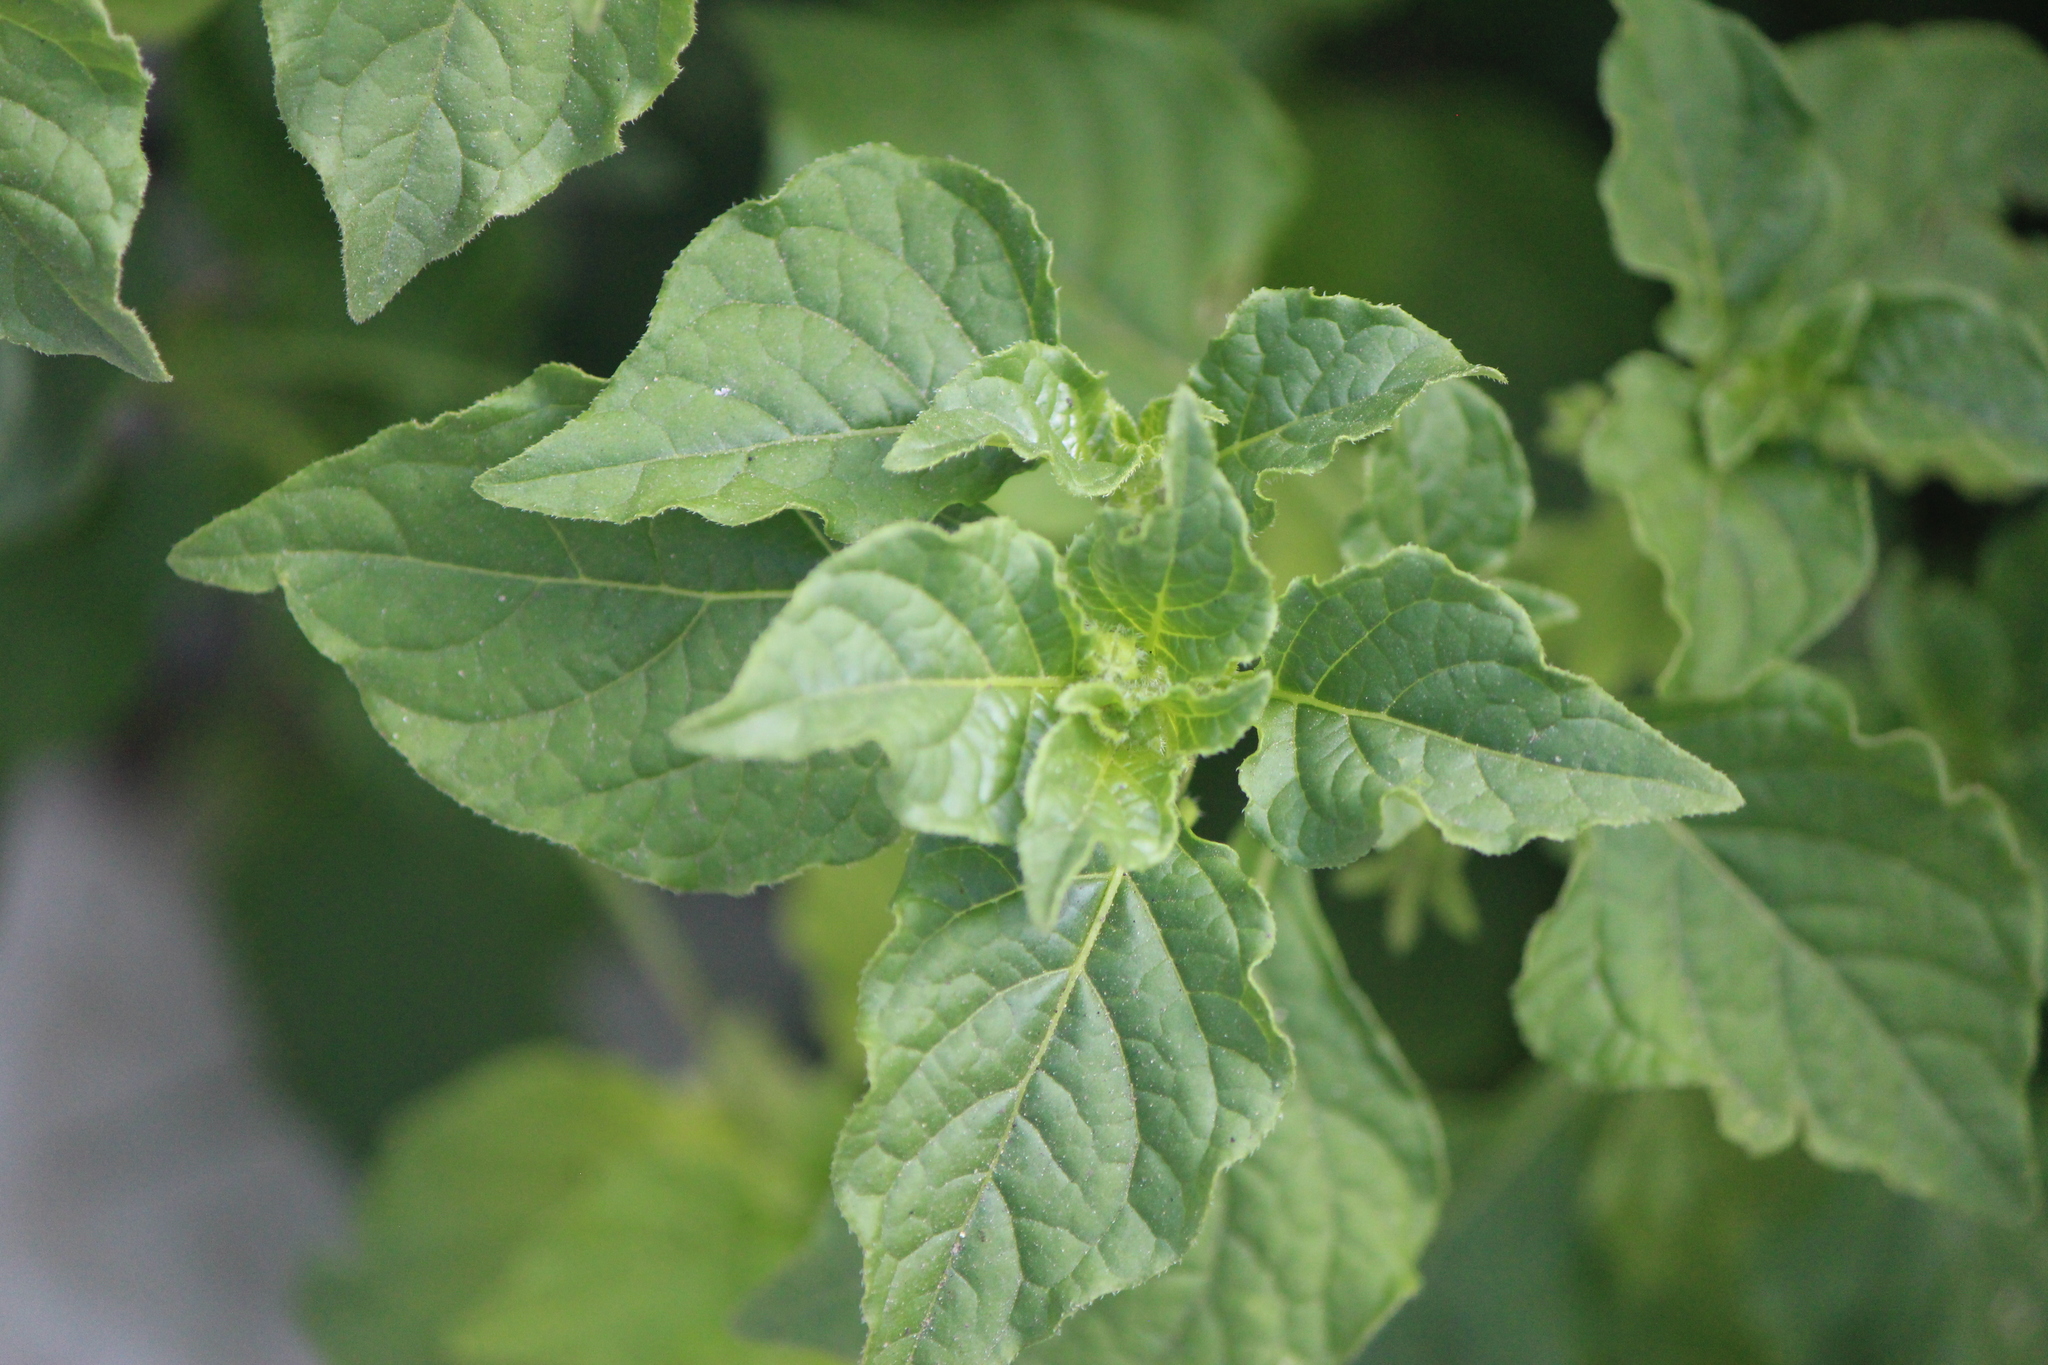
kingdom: Plantae
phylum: Tracheophyta
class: Magnoliopsida
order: Solanales
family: Solanaceae
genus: Jaltomata
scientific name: Jaltomata procumbens
